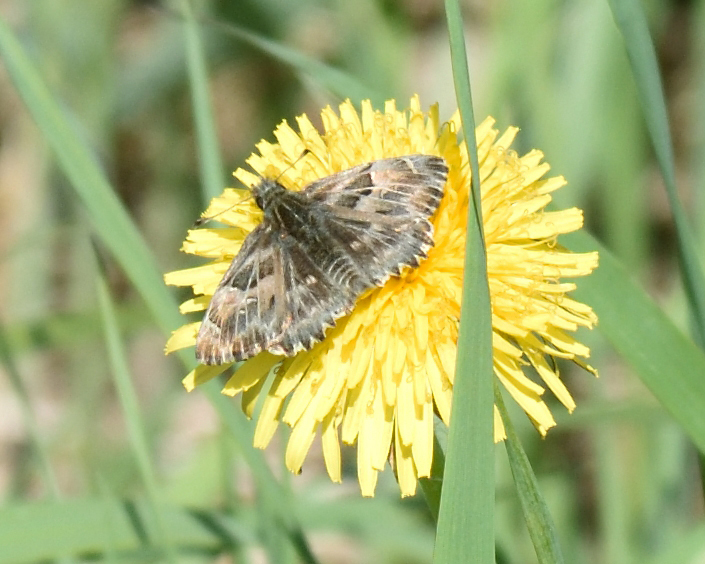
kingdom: Animalia
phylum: Arthropoda
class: Insecta
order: Lepidoptera
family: Hesperiidae
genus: Carcharodus
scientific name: Carcharodus alceae
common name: Mallow skipper
